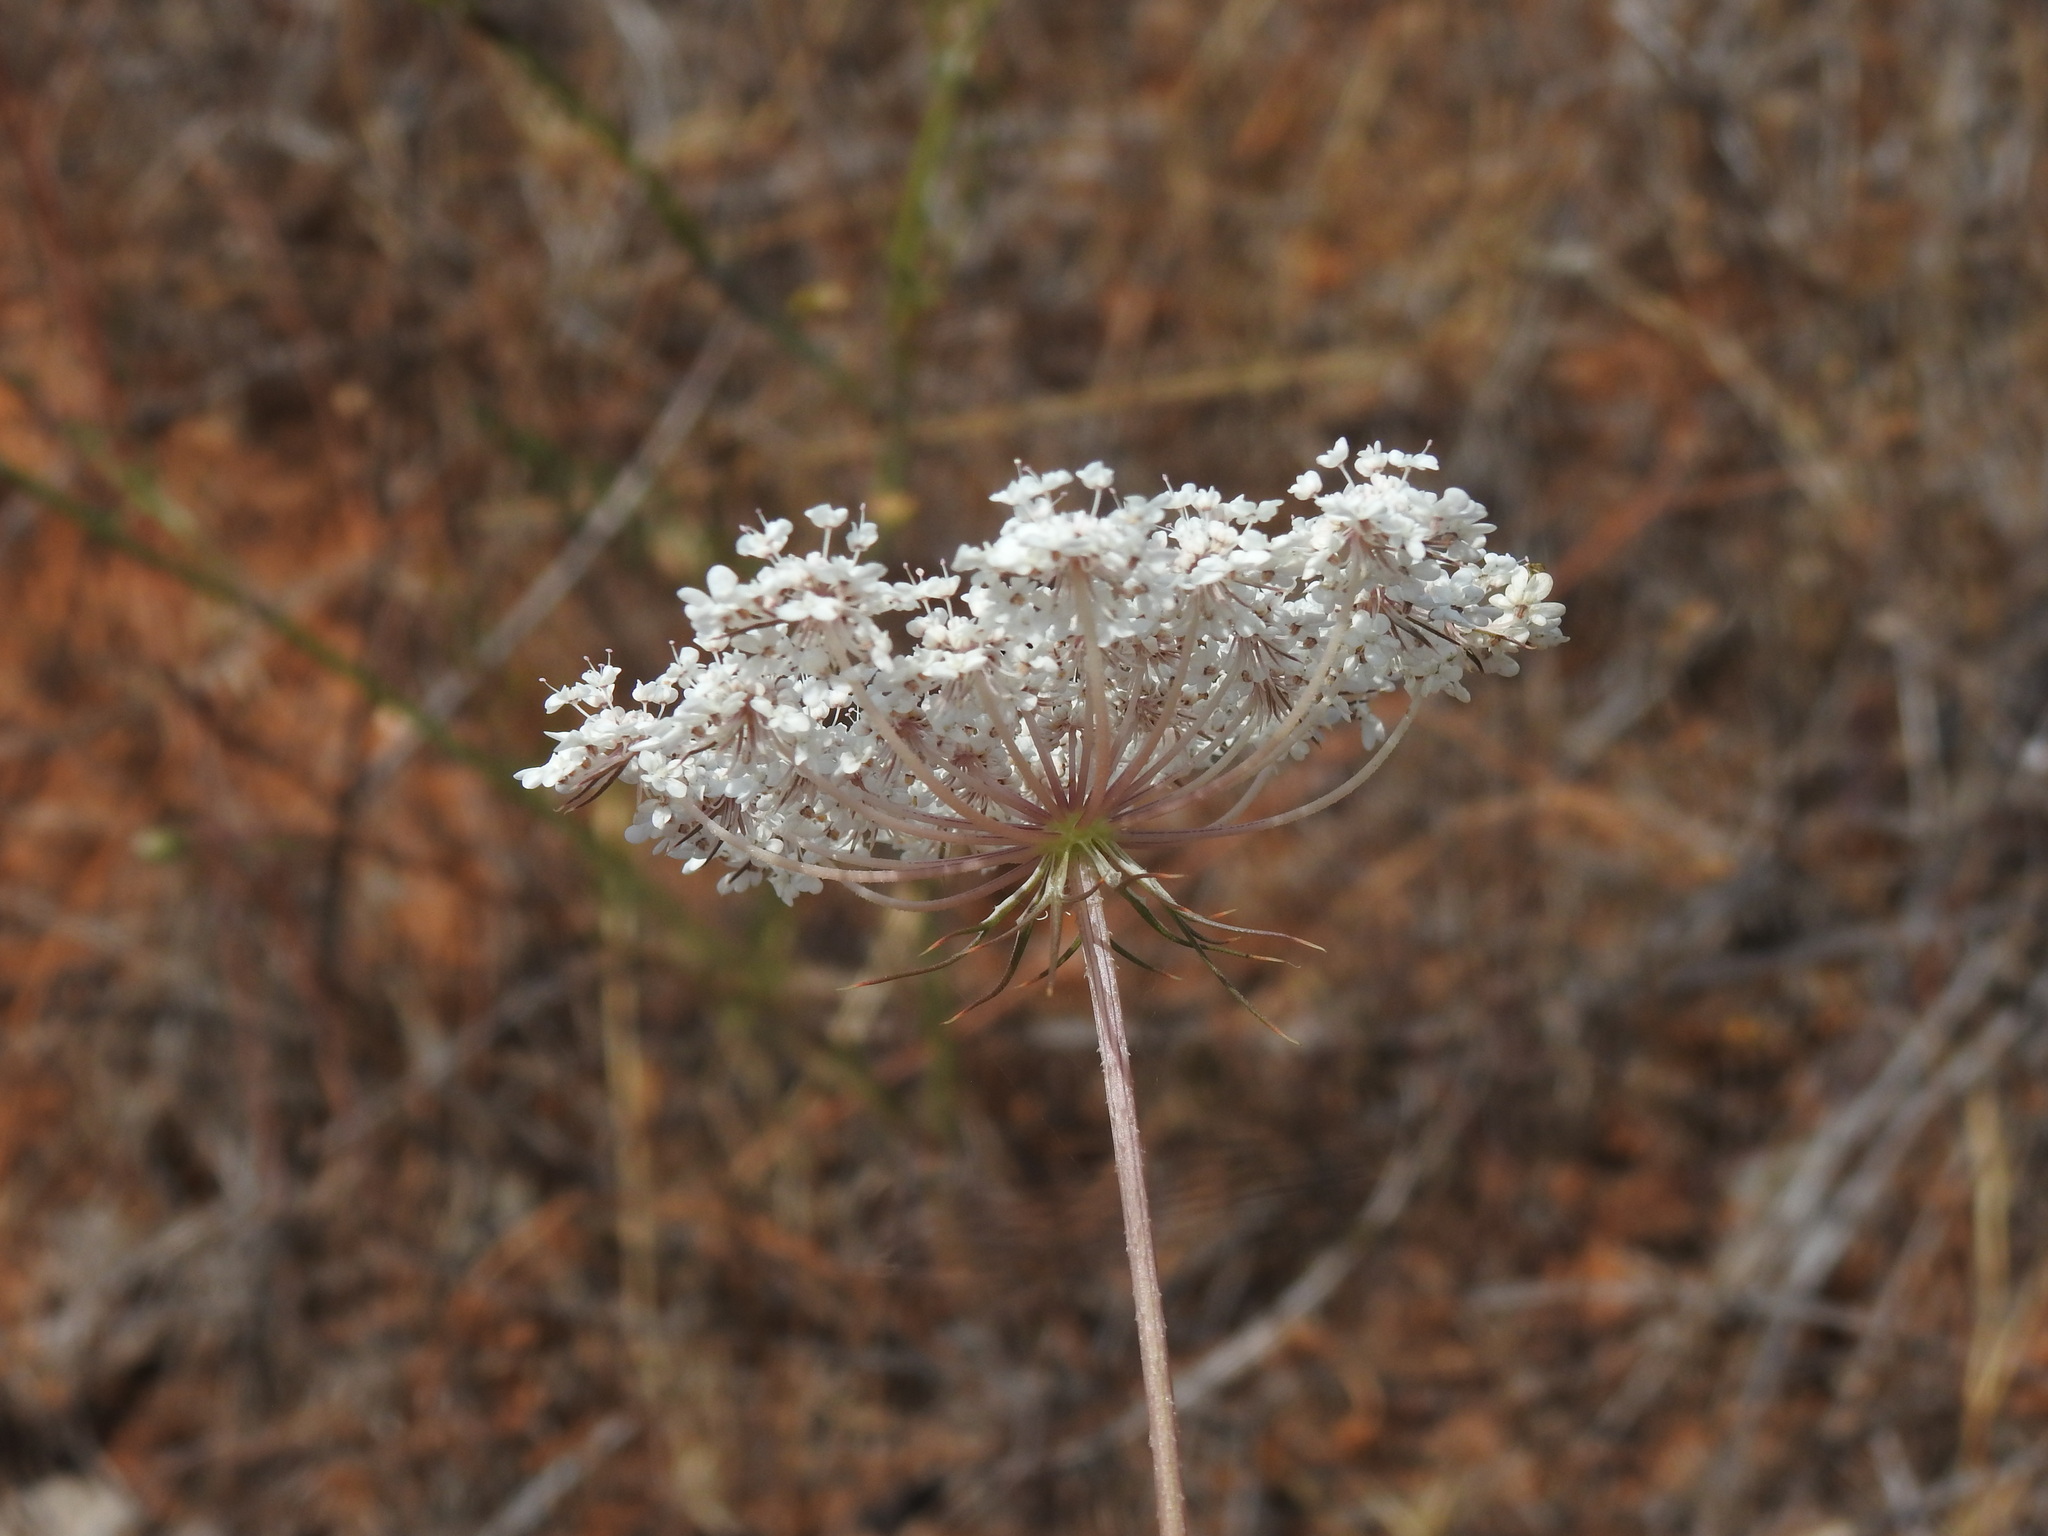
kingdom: Plantae
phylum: Tracheophyta
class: Magnoliopsida
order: Apiales
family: Apiaceae
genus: Daucus
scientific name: Daucus carota
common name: Wild carrot
